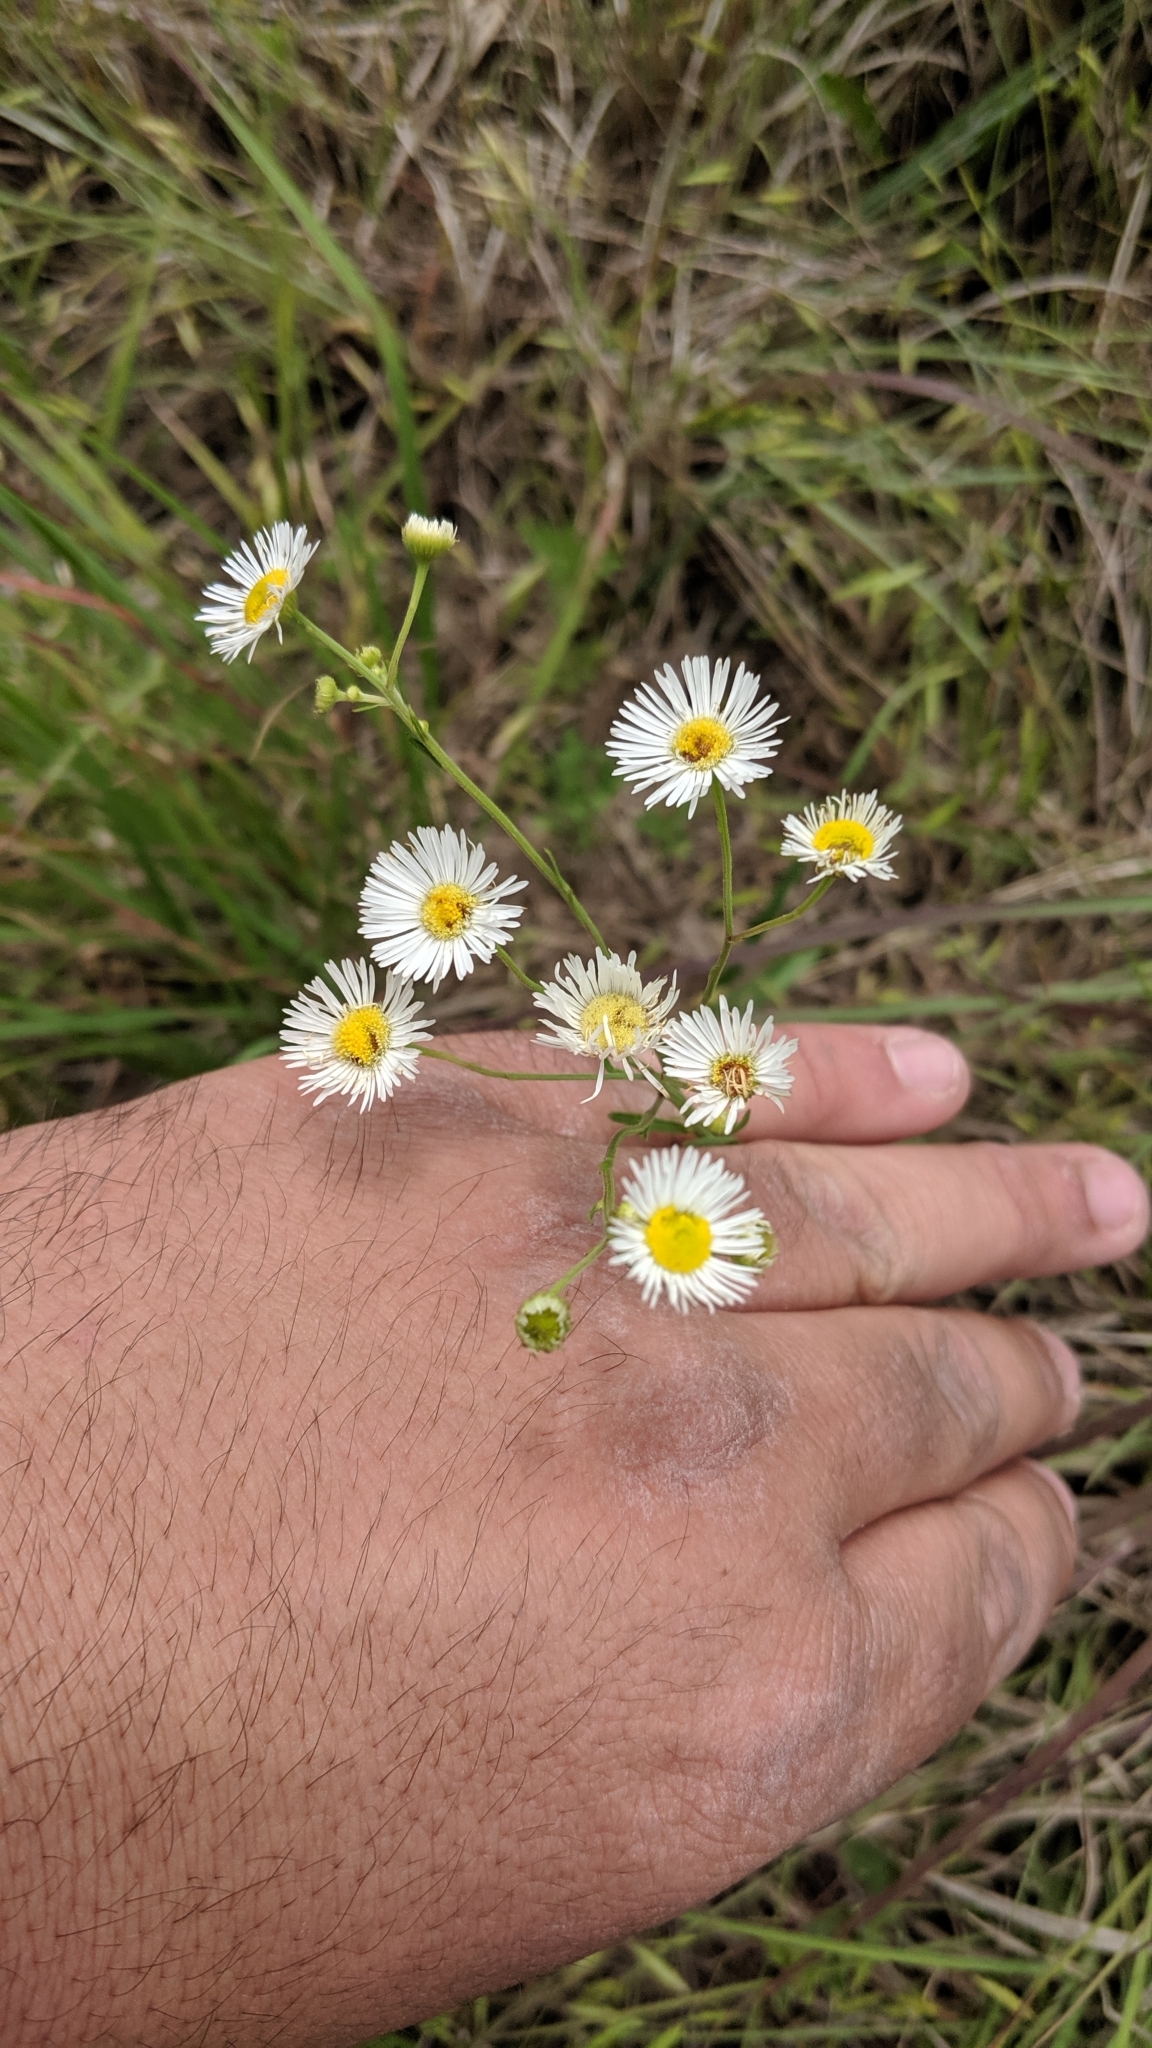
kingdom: Plantae
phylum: Tracheophyta
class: Magnoliopsida
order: Asterales
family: Asteraceae
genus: Erigeron
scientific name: Erigeron strigosus
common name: Common eastern fleabane
